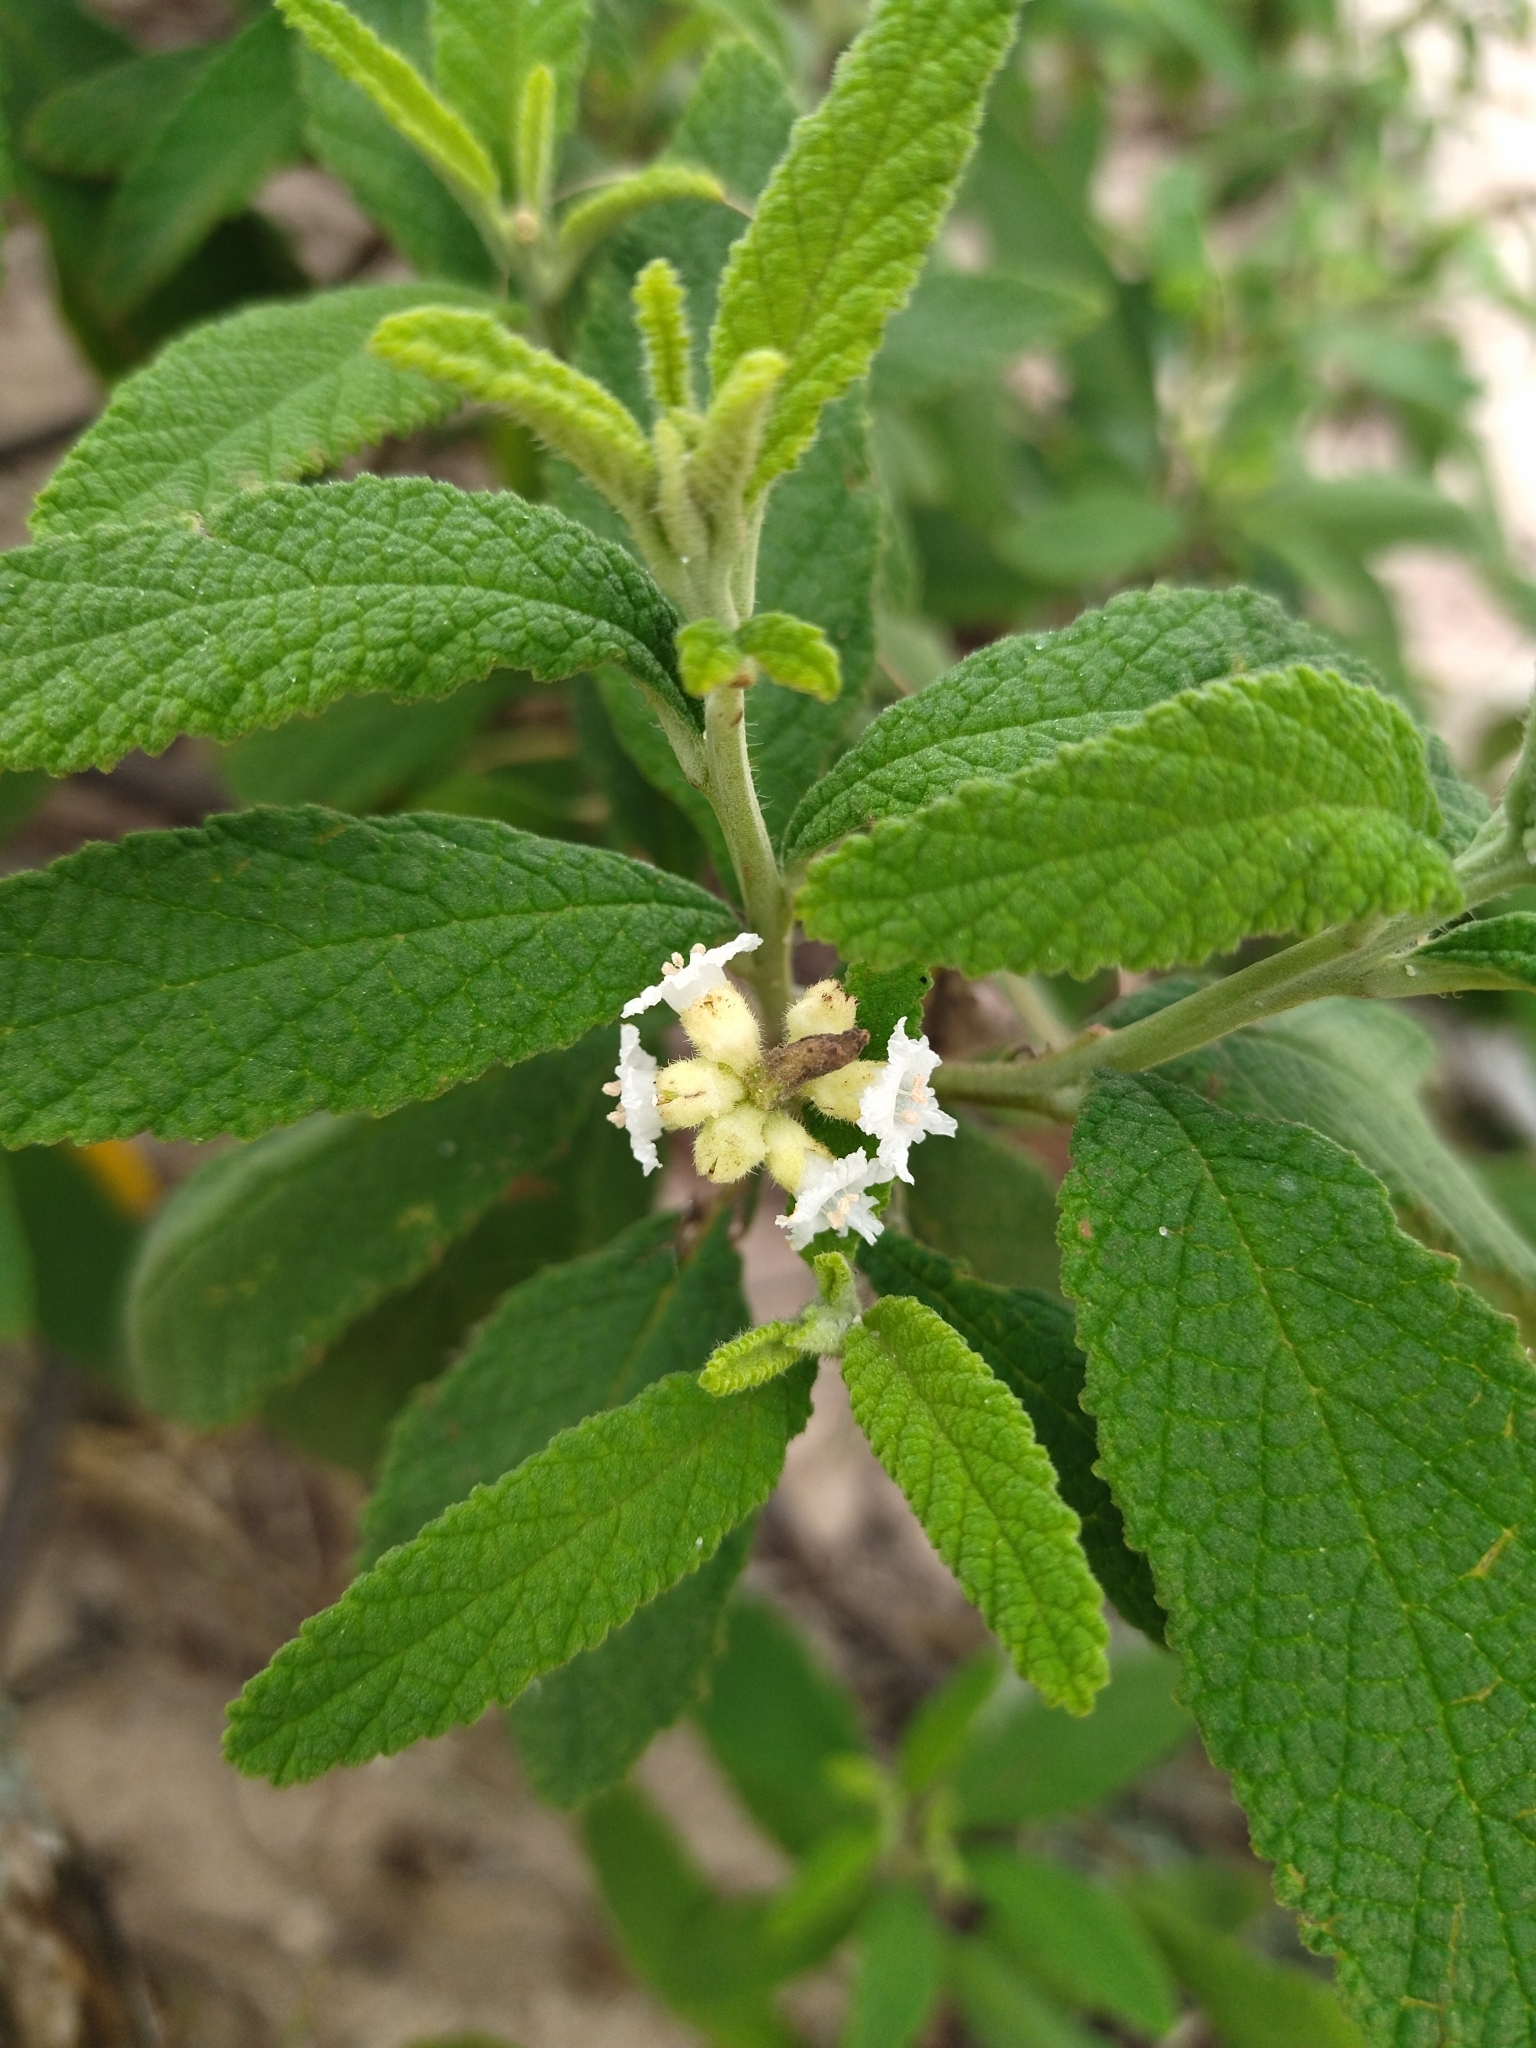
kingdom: Plantae
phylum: Tracheophyta
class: Magnoliopsida
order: Boraginales
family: Cordiaceae
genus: Varronia
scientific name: Varronia curassavica
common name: Black sage
